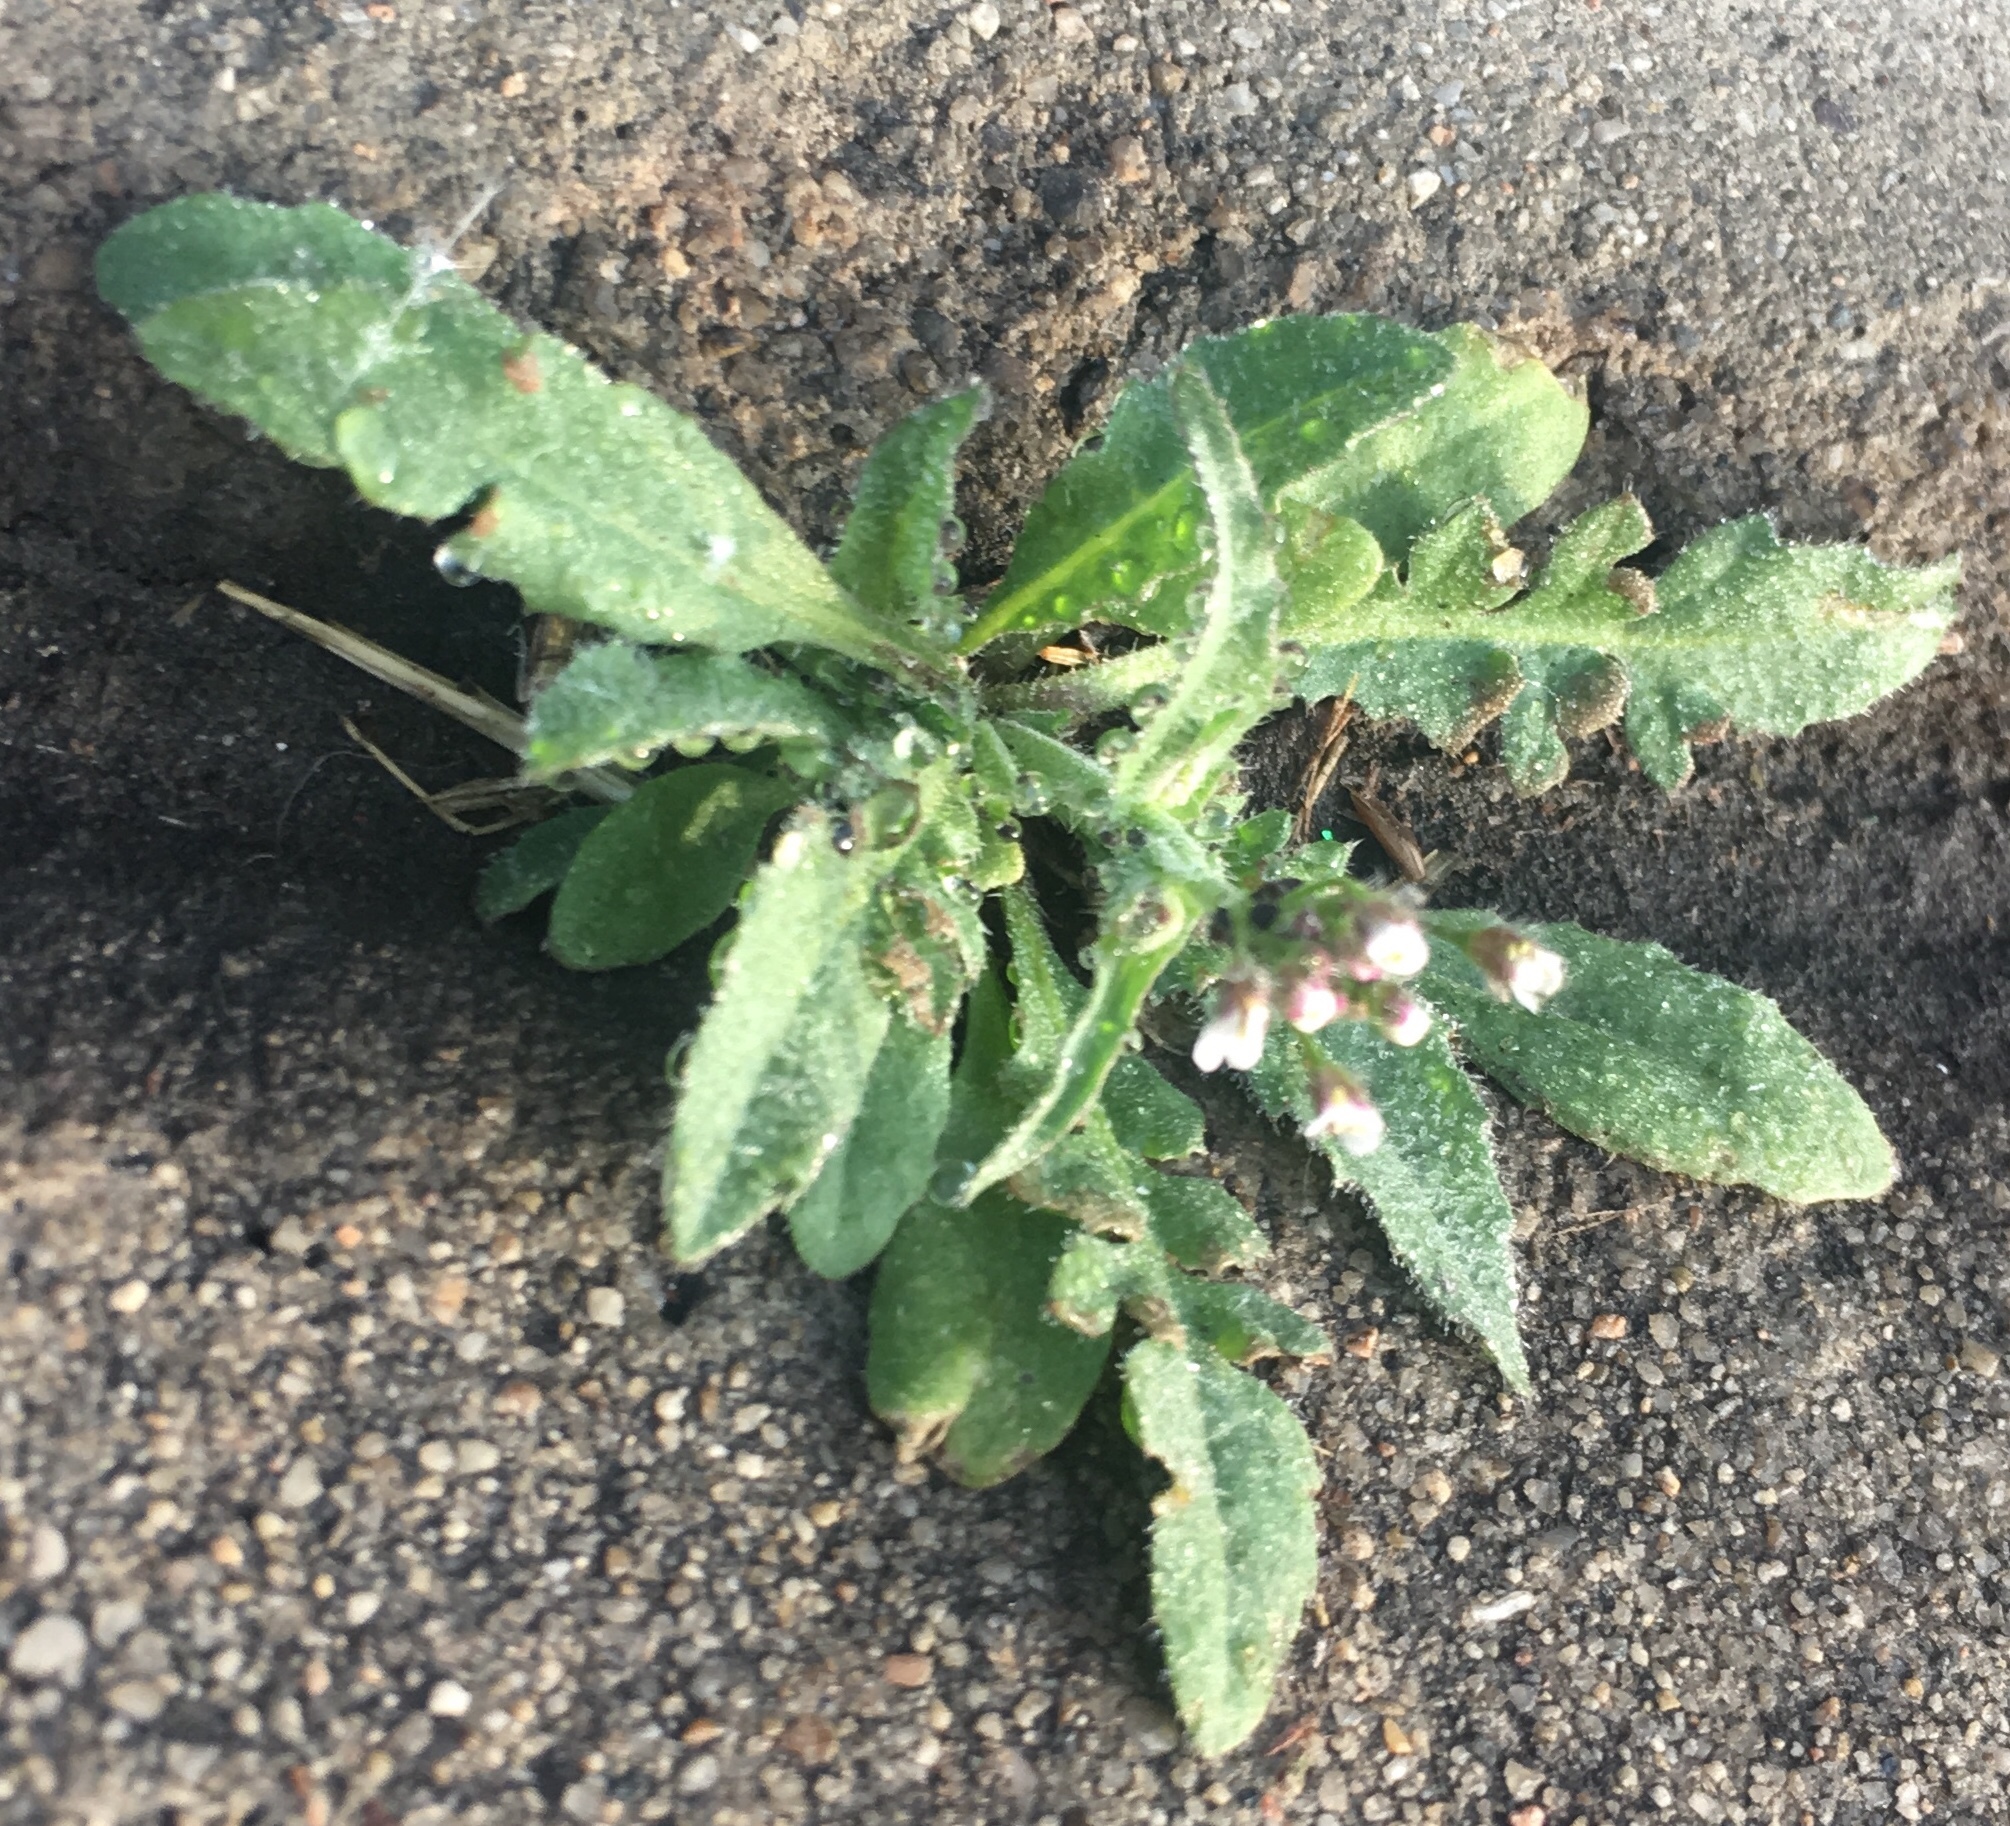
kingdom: Plantae
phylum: Tracheophyta
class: Magnoliopsida
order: Brassicales
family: Brassicaceae
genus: Capsella
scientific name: Capsella bursa-pastoris
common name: Shepherd's purse
